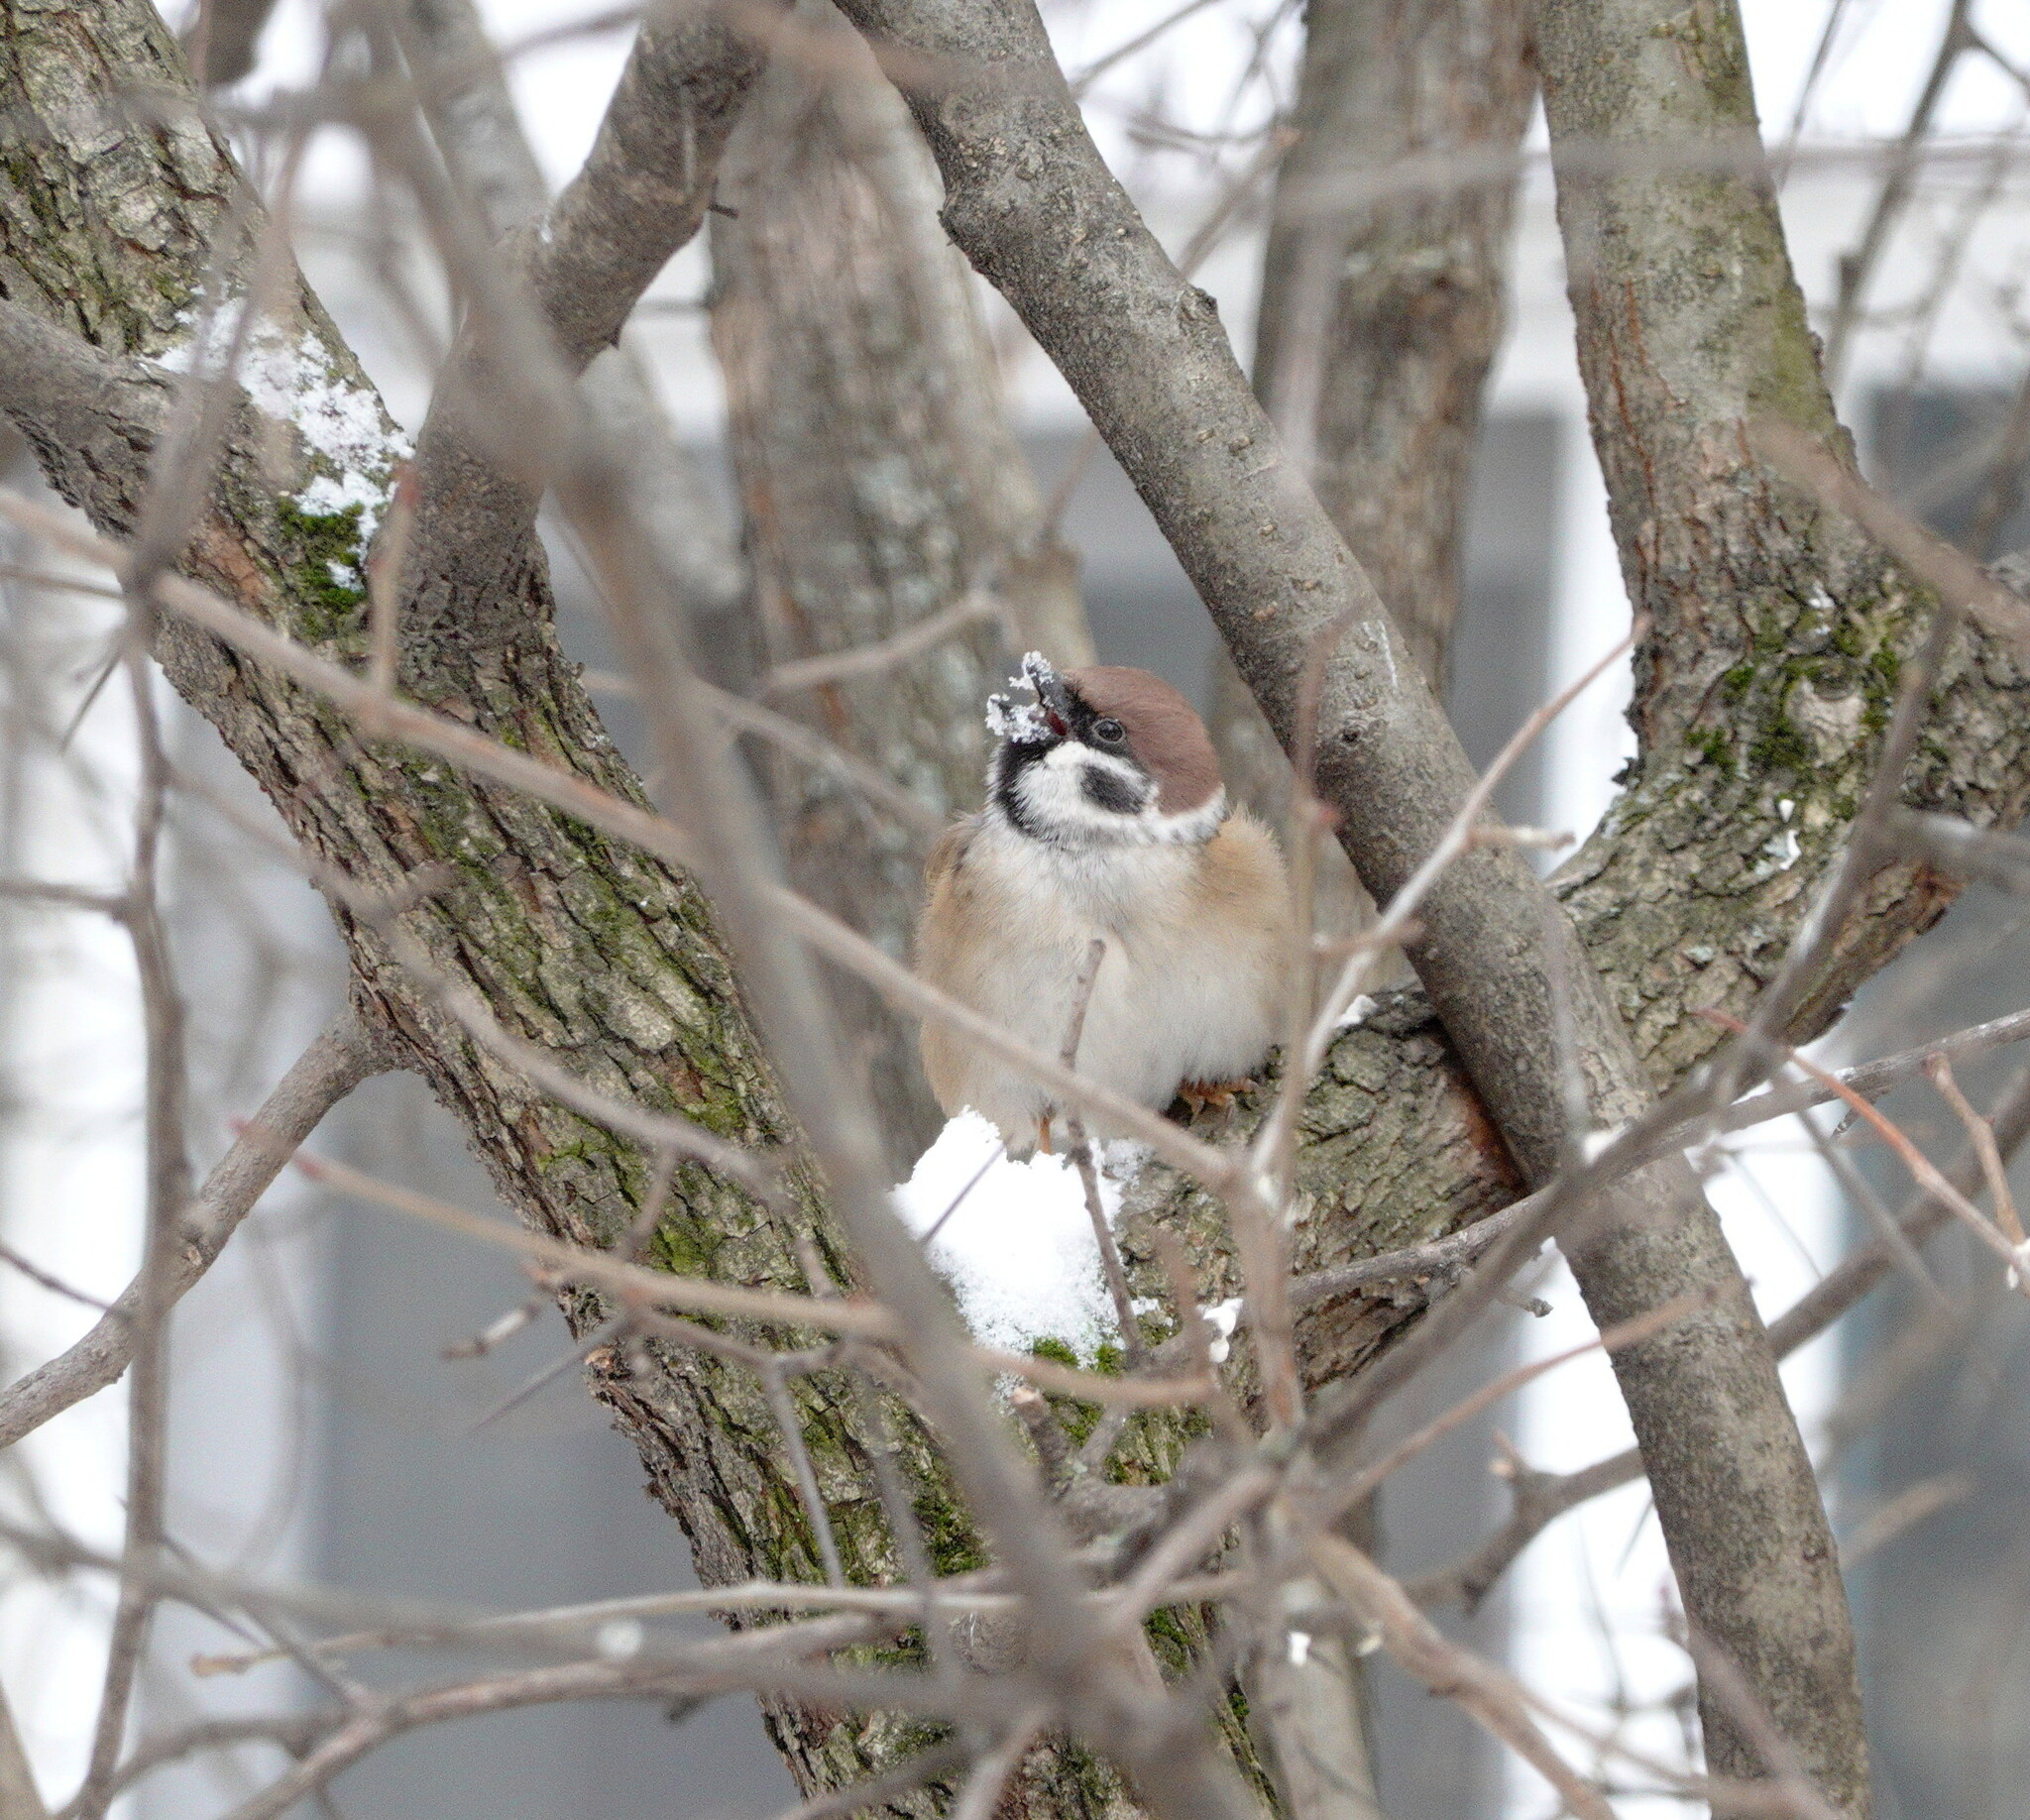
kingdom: Animalia
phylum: Chordata
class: Aves
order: Passeriformes
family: Passeridae
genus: Passer
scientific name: Passer montanus
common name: Eurasian tree sparrow
